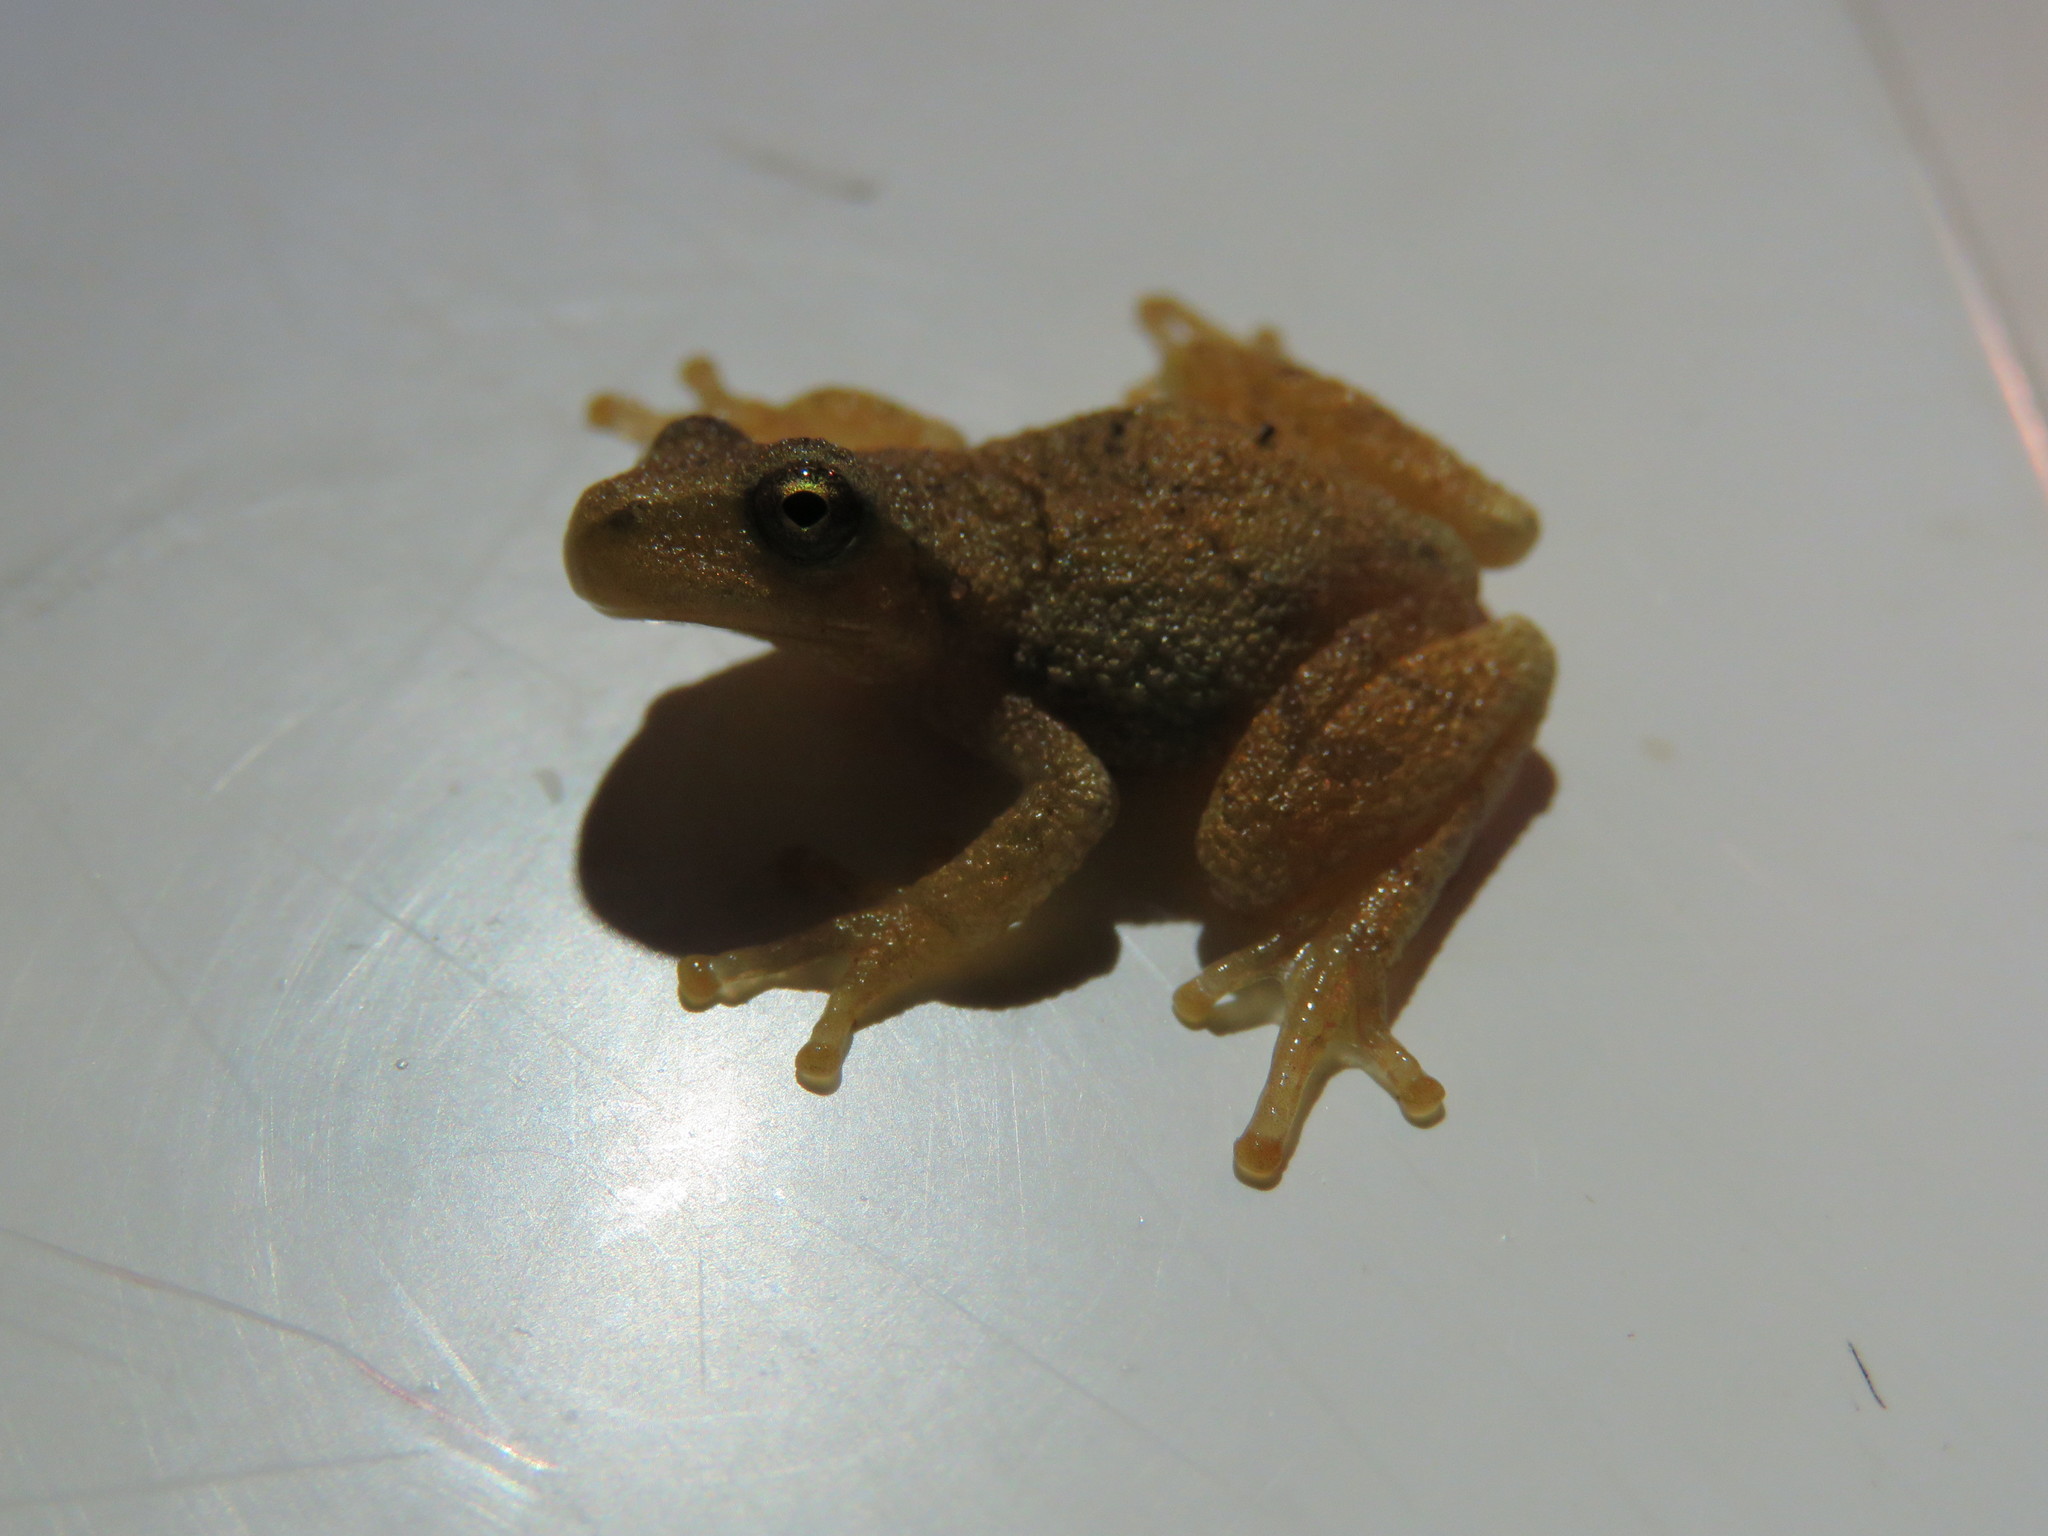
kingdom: Animalia
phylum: Chordata
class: Amphibia
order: Anura
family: Hylidae
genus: Pseudacris
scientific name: Pseudacris crucifer
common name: Spring peeper
